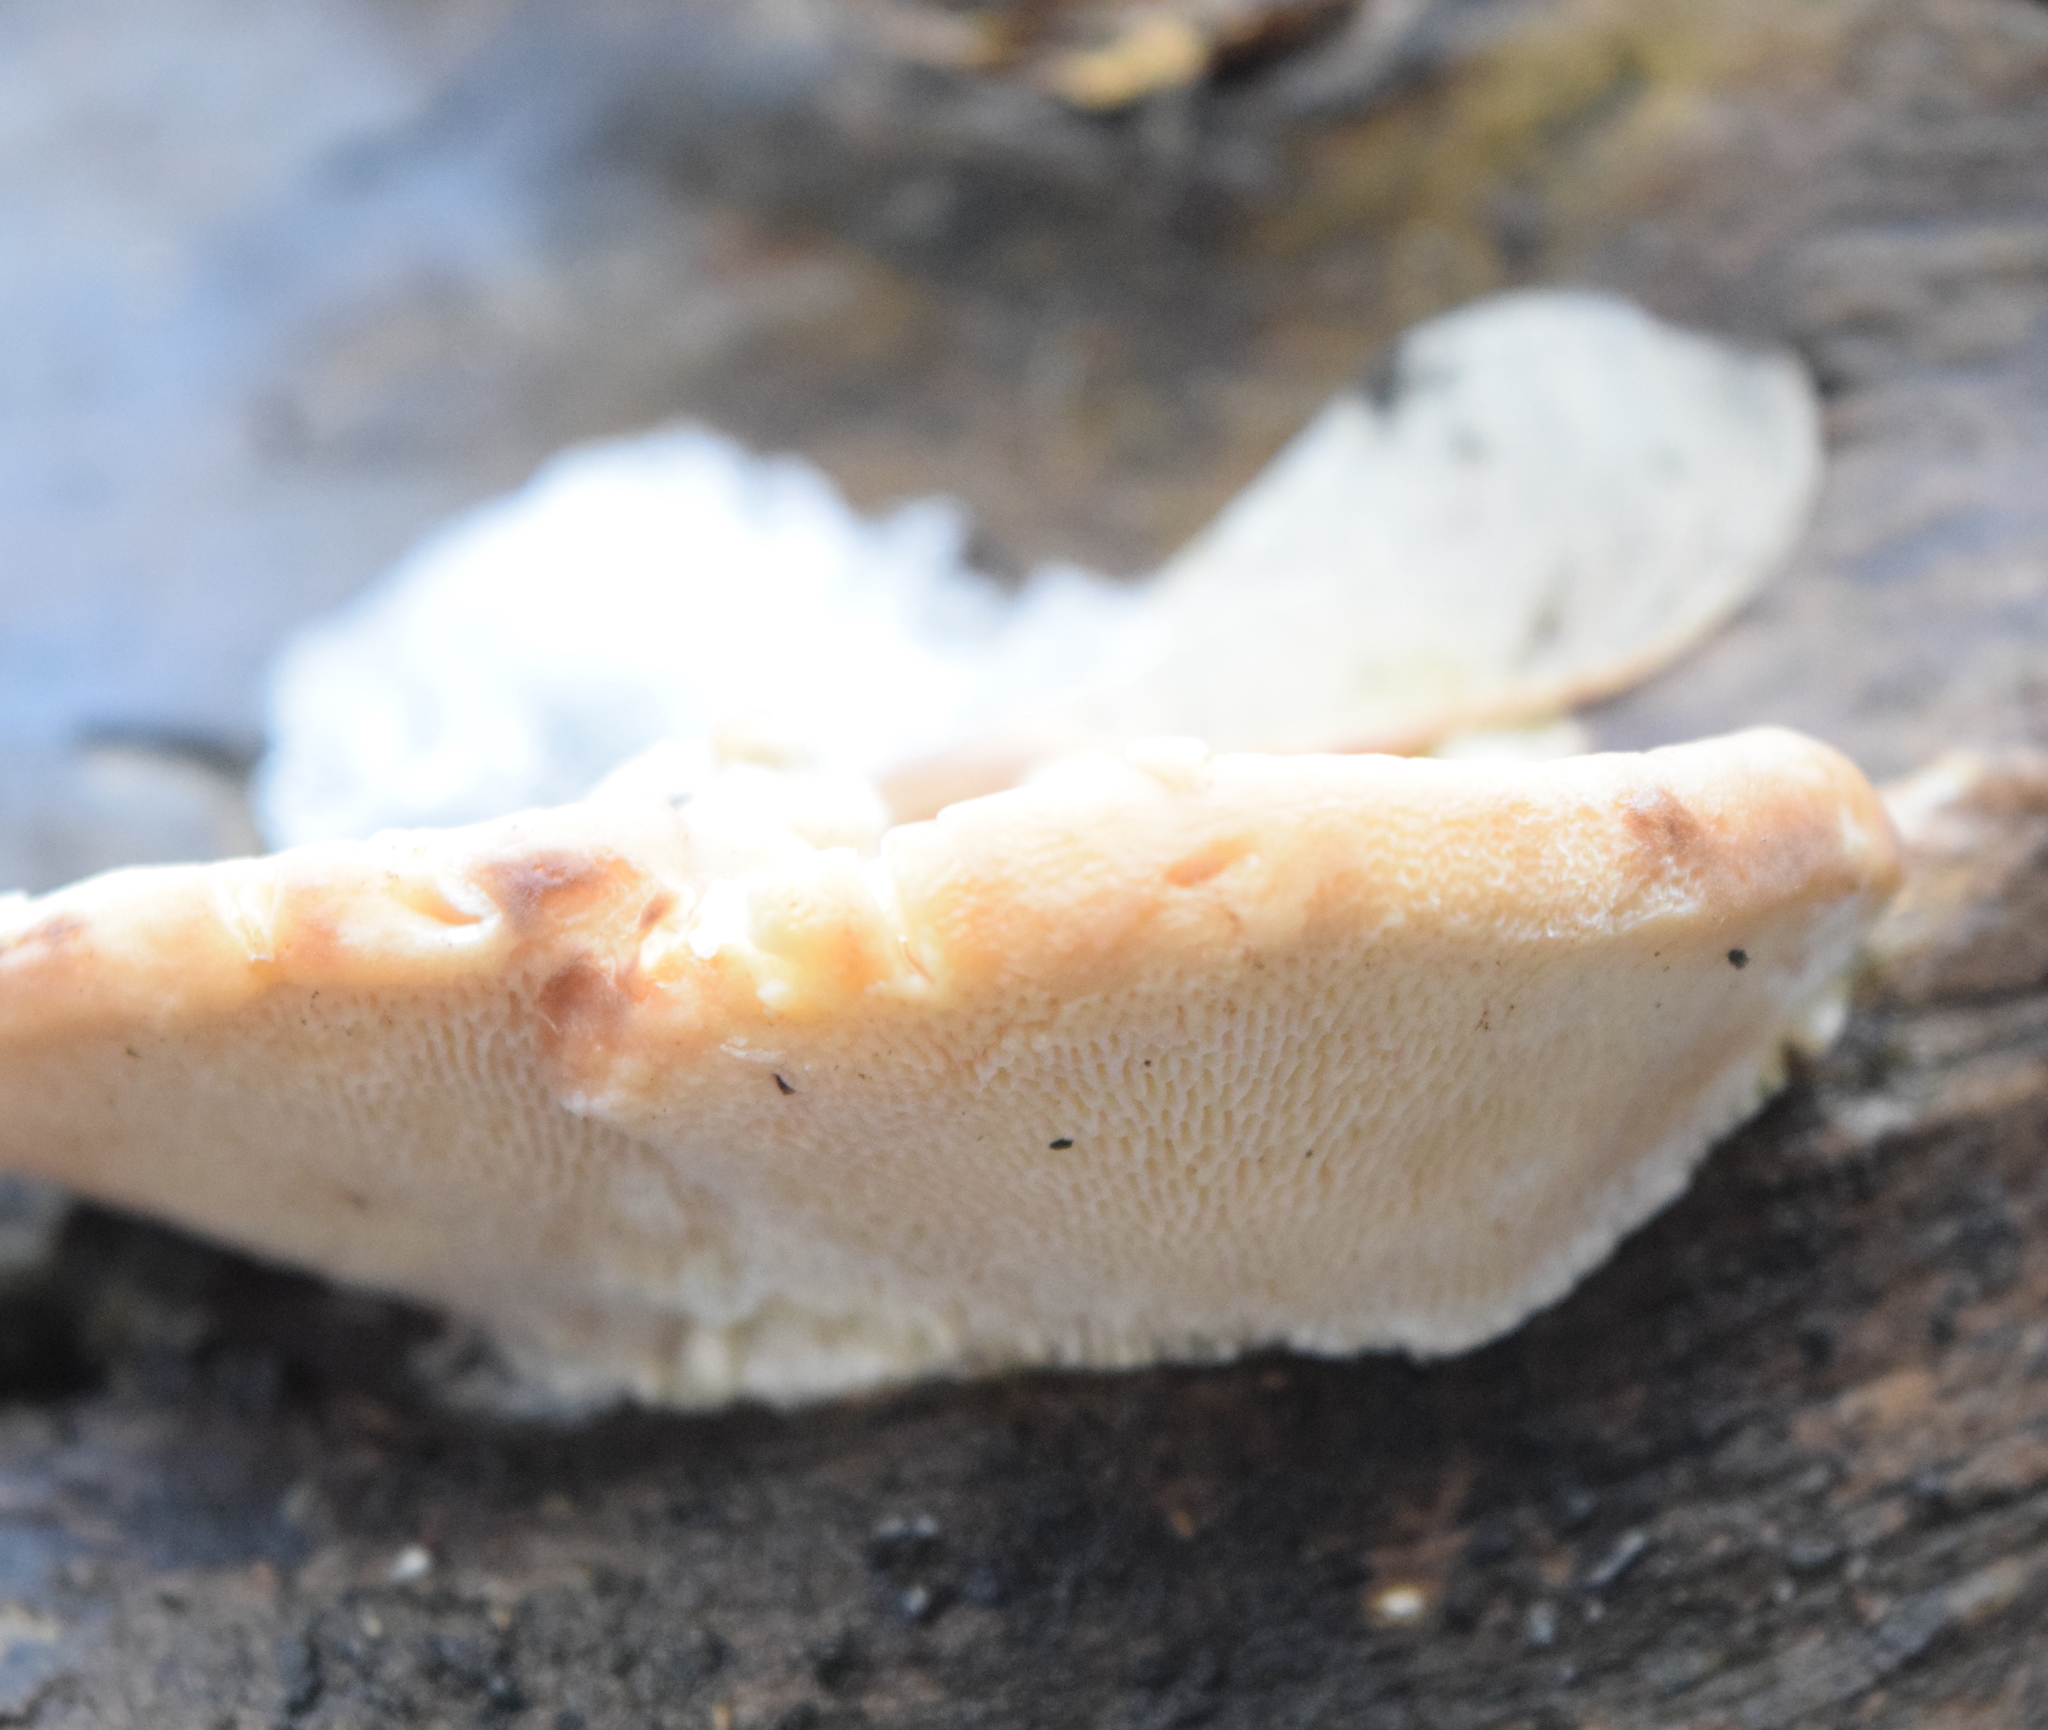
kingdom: Fungi
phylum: Basidiomycota
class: Agaricomycetes
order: Polyporales
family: Polyporaceae
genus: Trametes
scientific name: Trametes gibbosa
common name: Lumpy bracket
